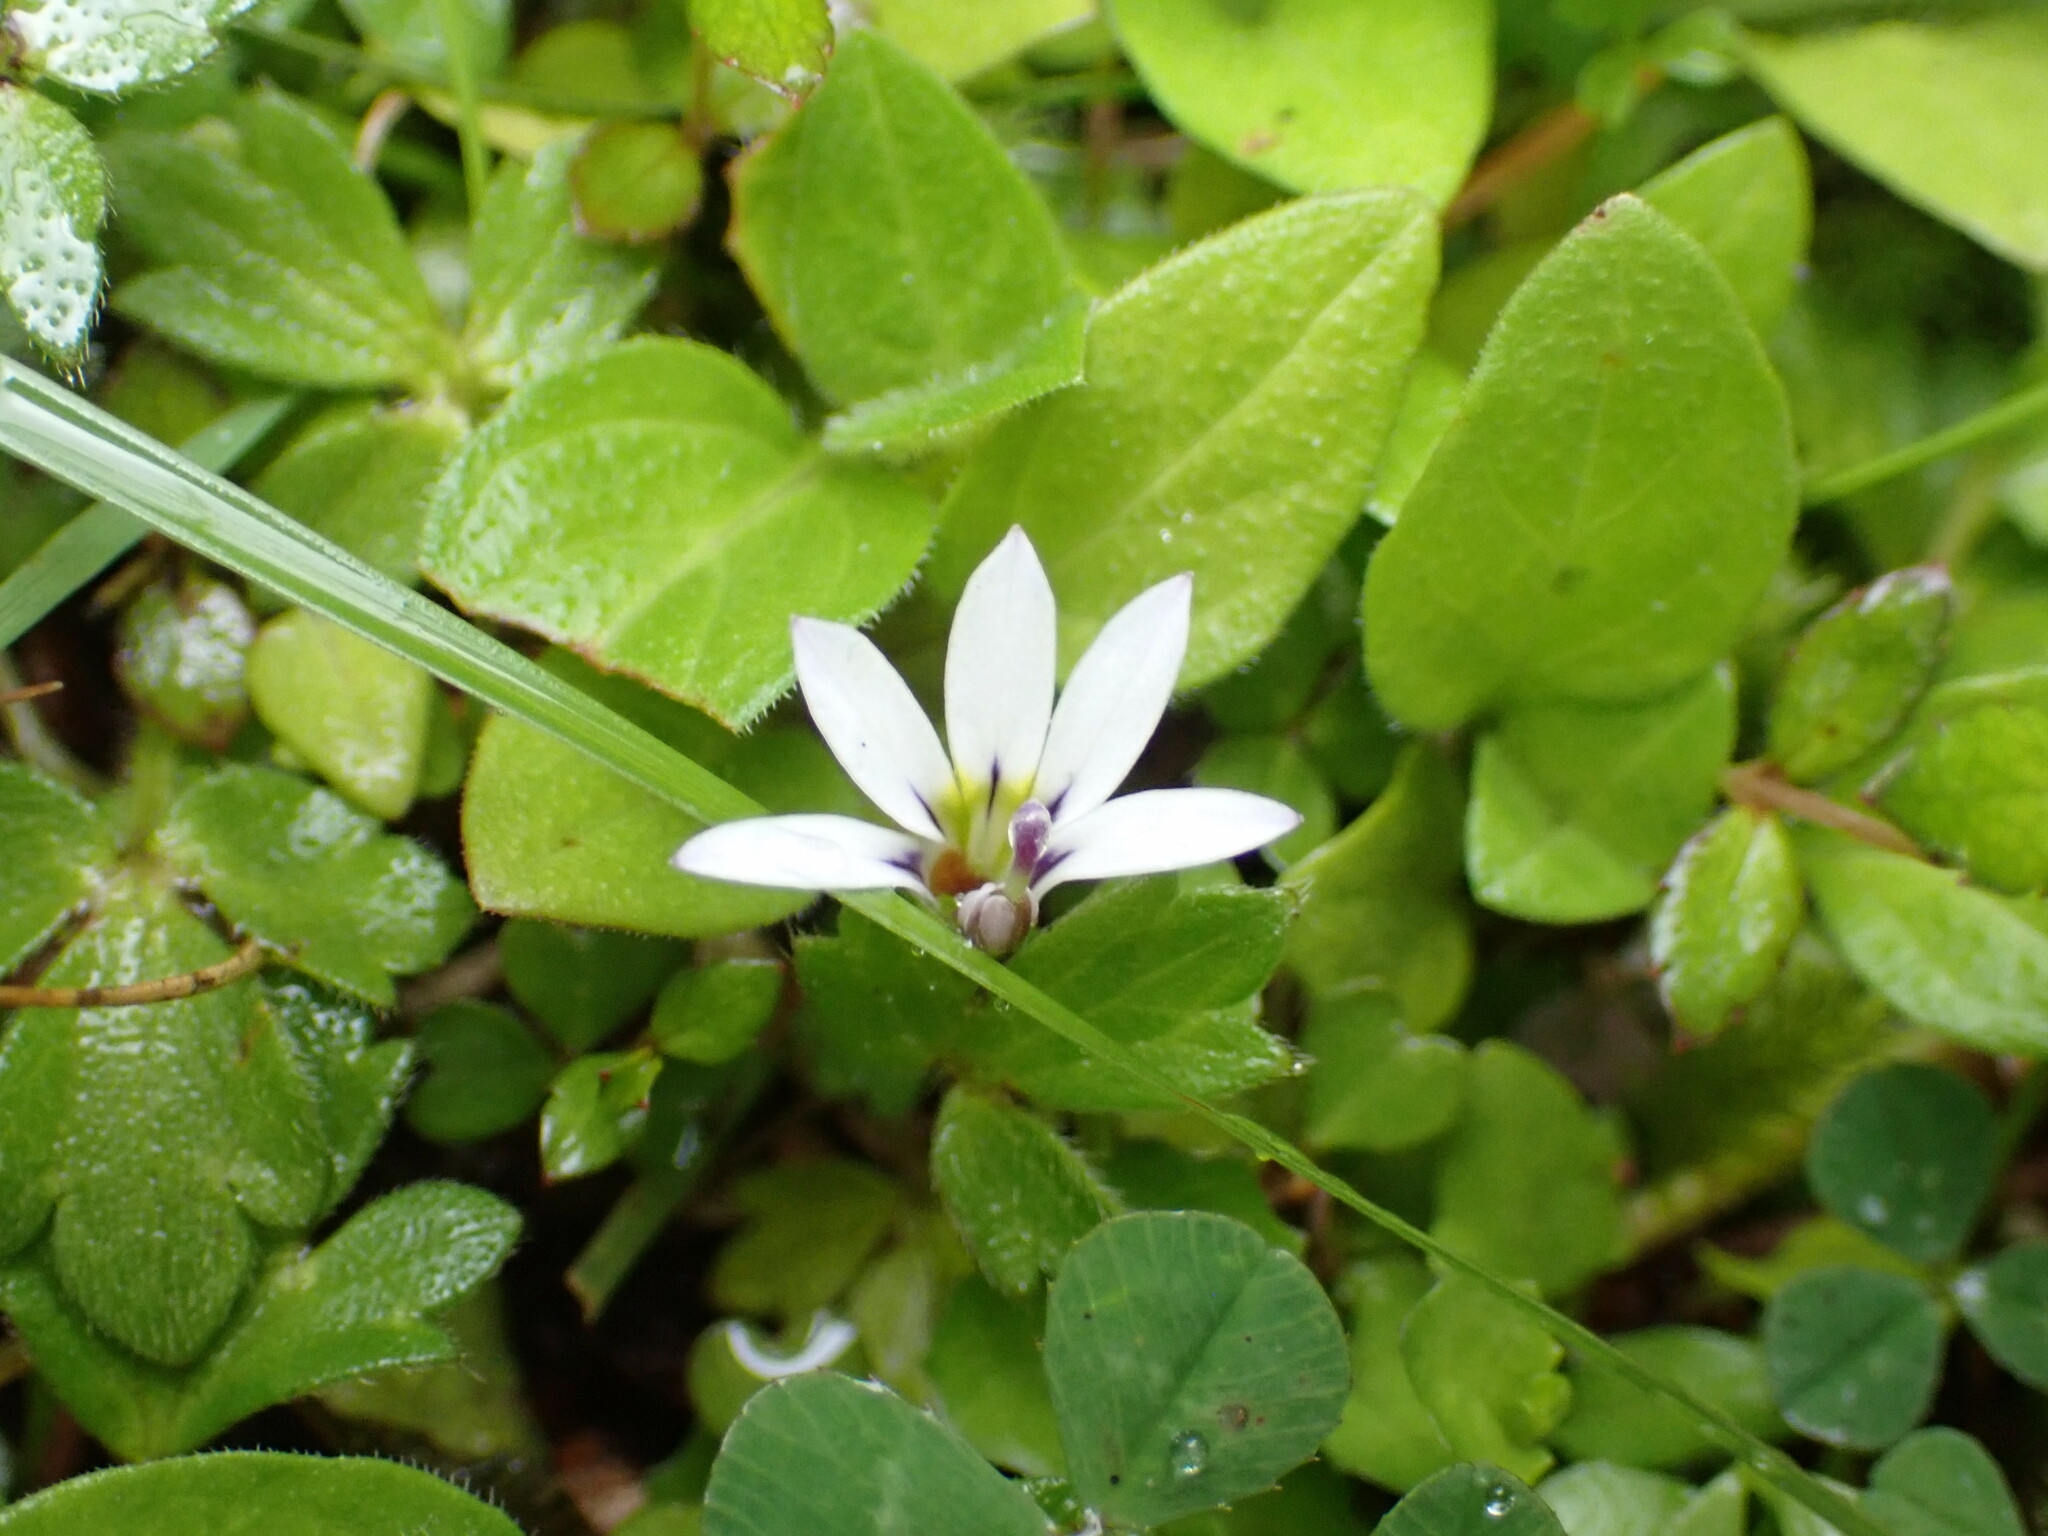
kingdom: Plantae
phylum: Tracheophyta
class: Magnoliopsida
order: Asterales
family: Campanulaceae
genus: Lobelia
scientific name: Lobelia angulata
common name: Lawn lobelia
